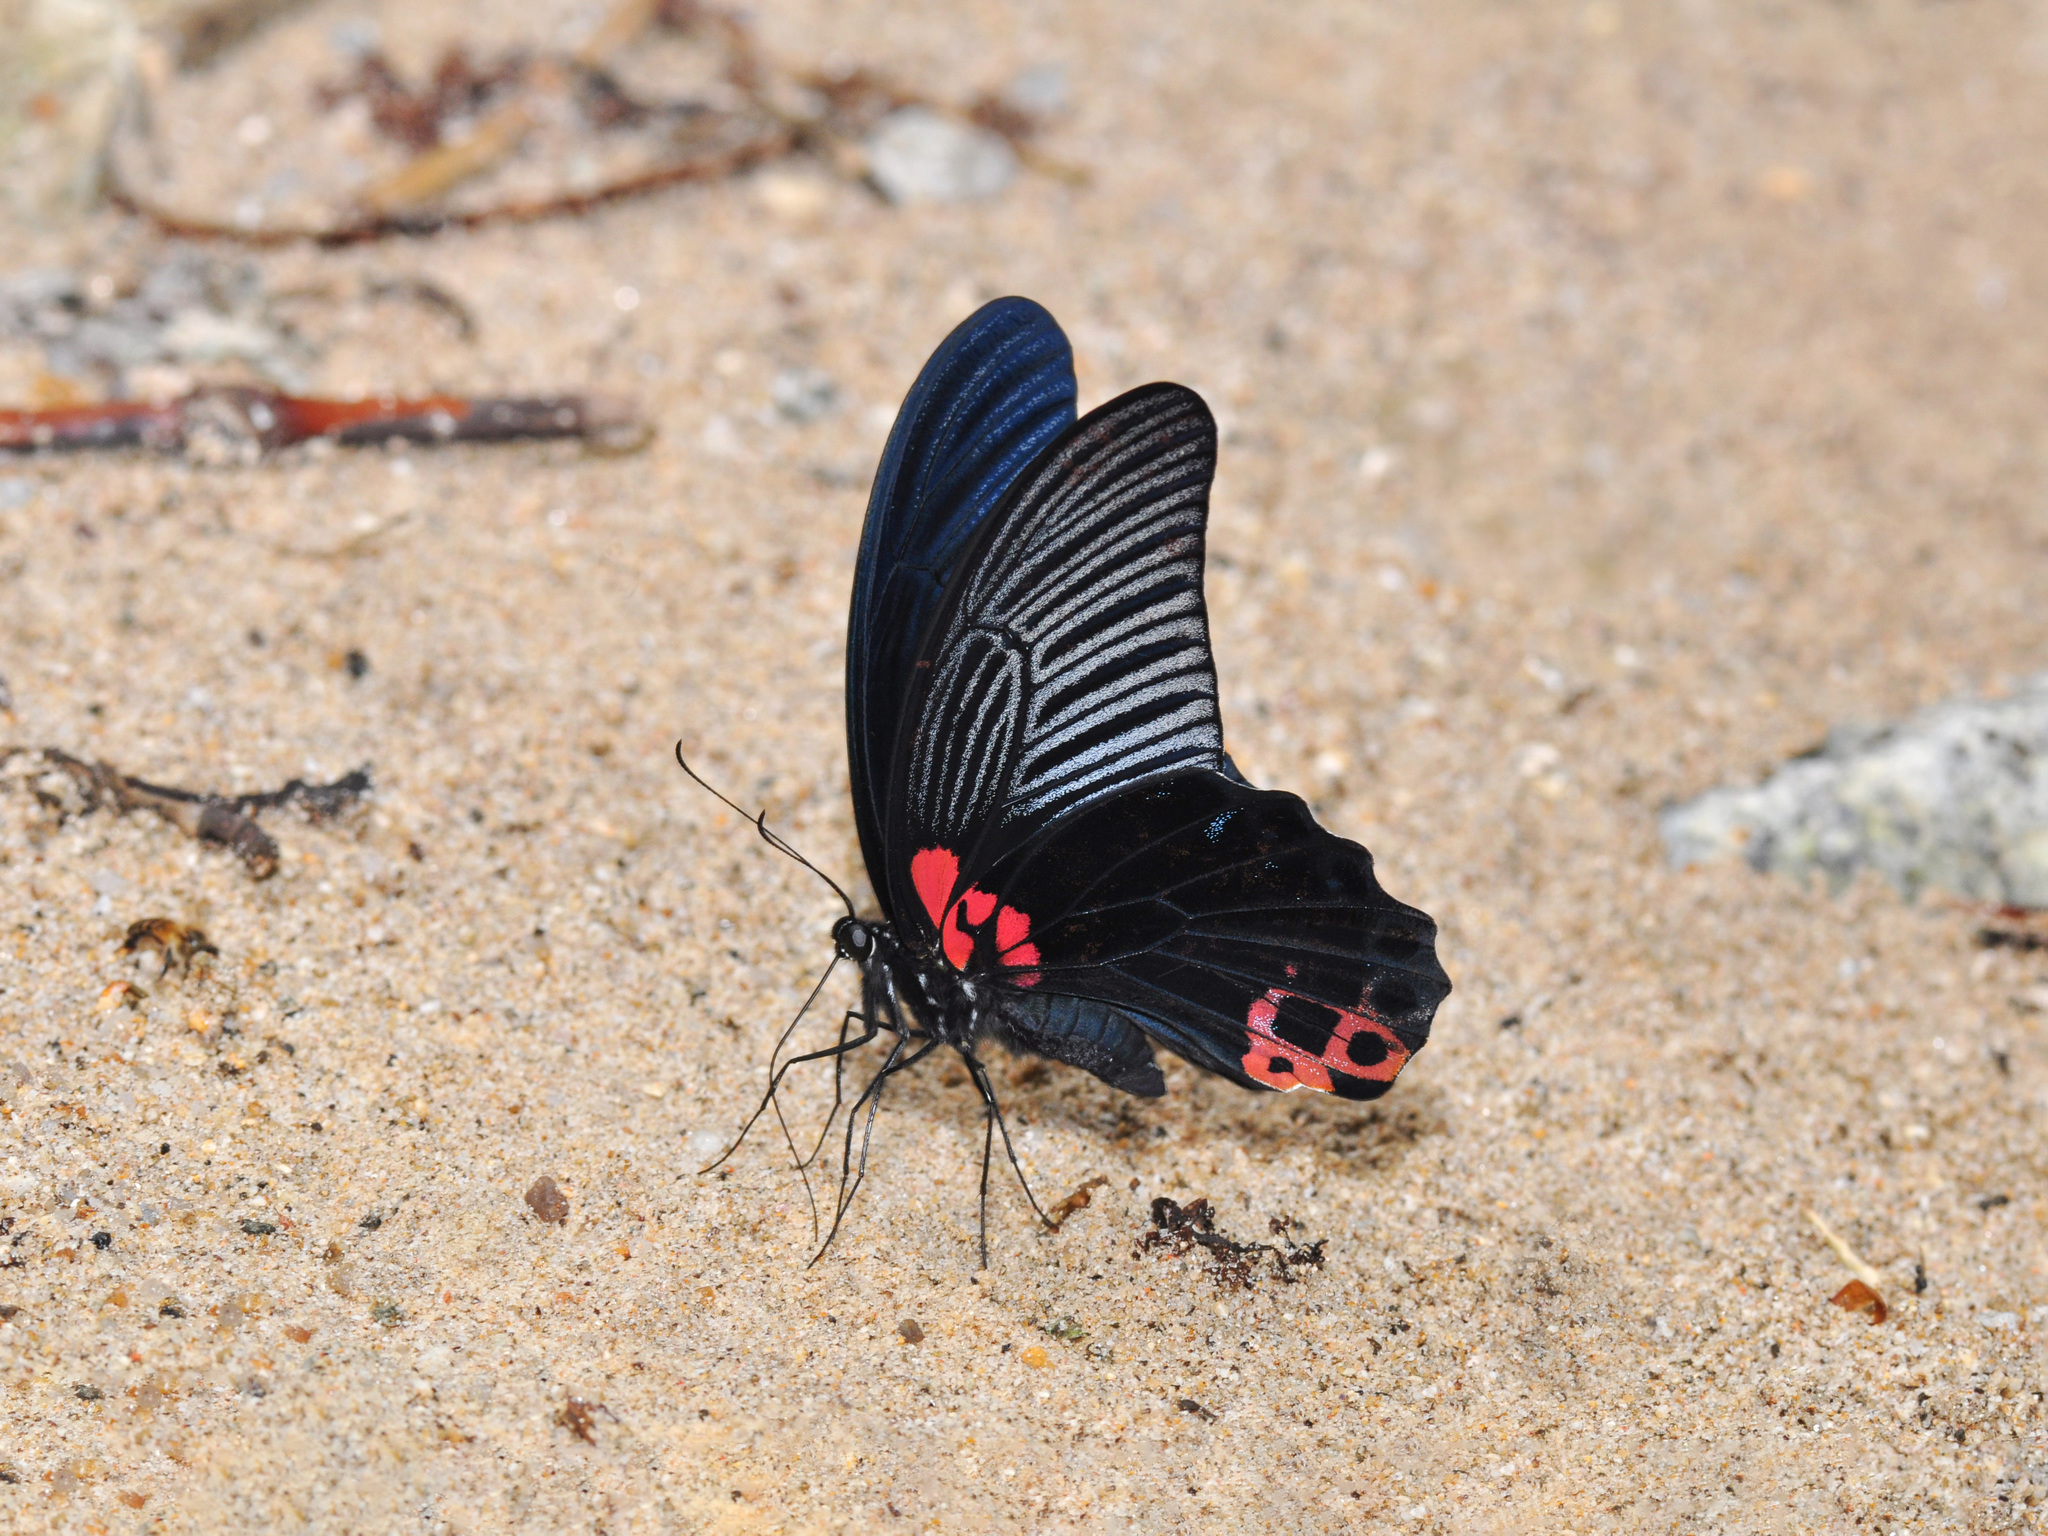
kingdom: Animalia
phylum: Arthropoda
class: Insecta
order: Lepidoptera
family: Papilionidae
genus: Papilio
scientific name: Papilio memnon
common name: Great mormon
